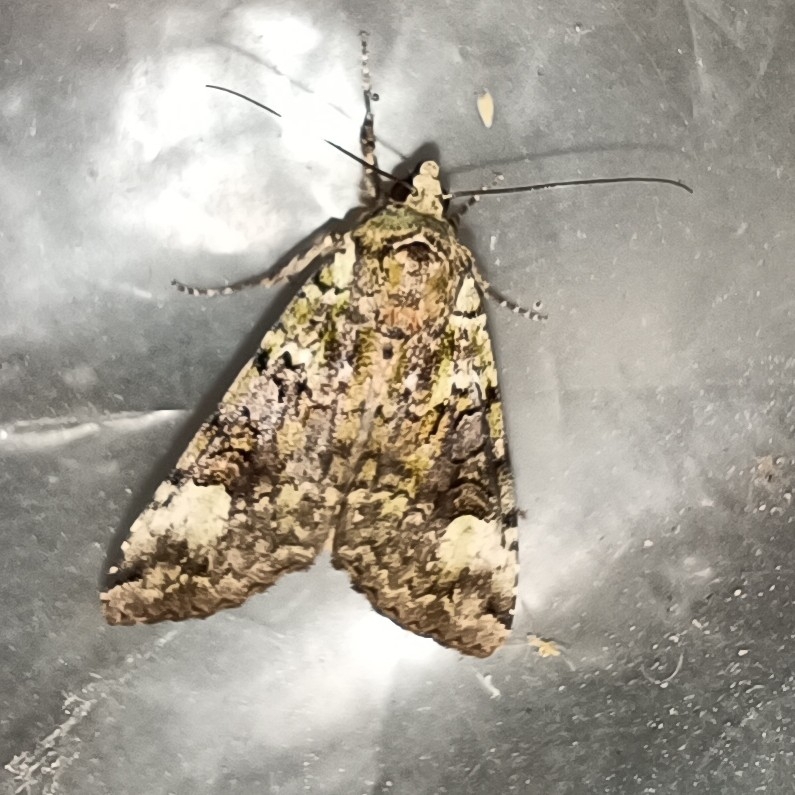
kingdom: Animalia
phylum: Arthropoda
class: Insecta
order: Lepidoptera
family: Noctuidae
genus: Anaplectoides
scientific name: Anaplectoides prasina
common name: Green arches
